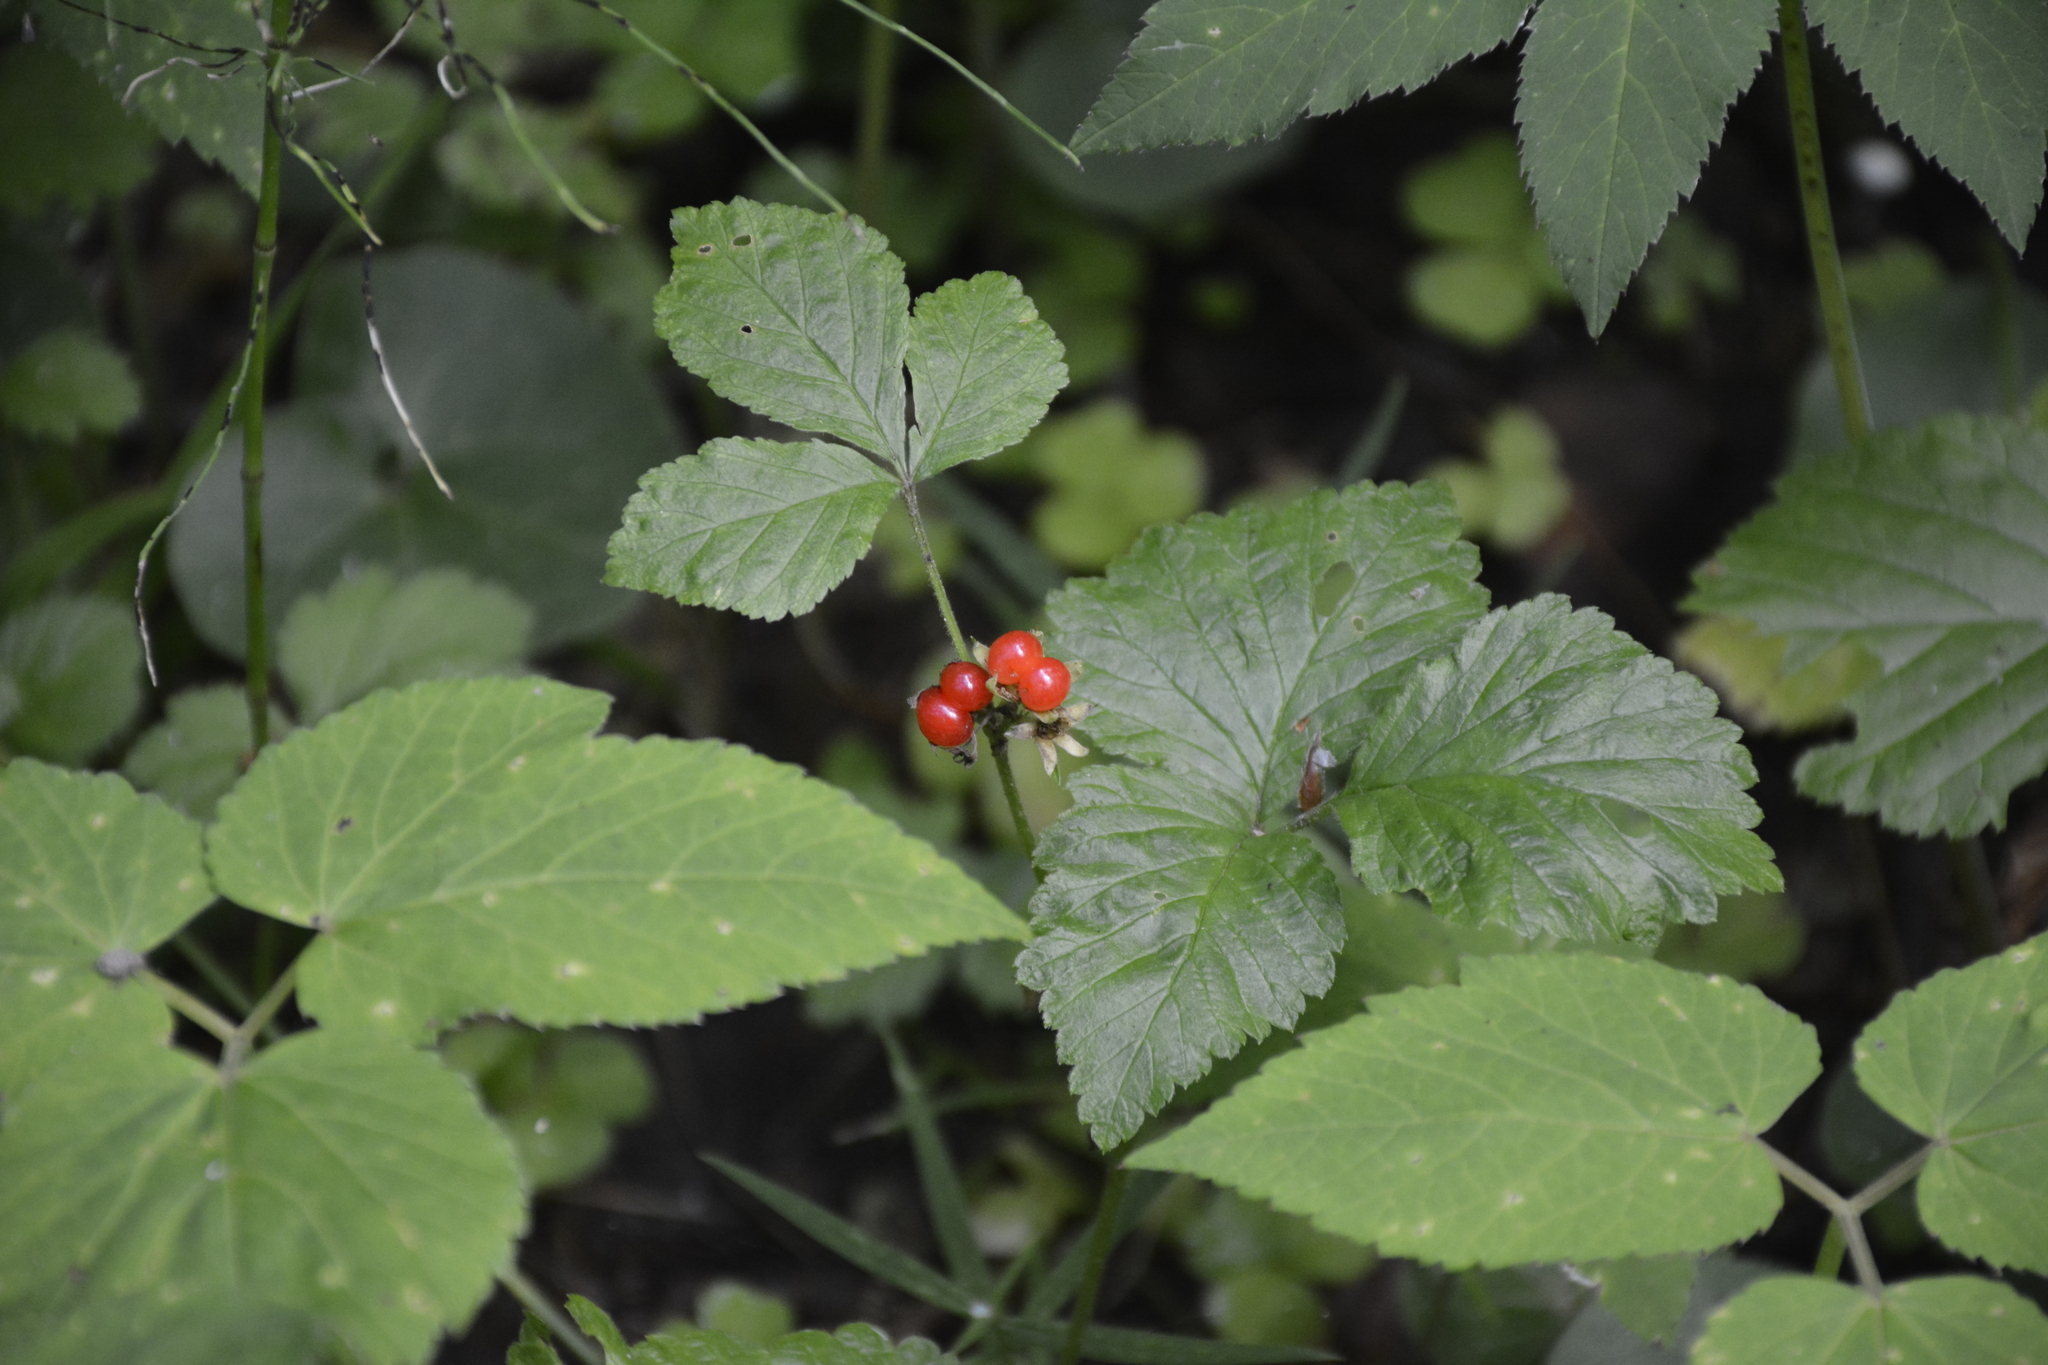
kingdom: Plantae
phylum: Tracheophyta
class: Magnoliopsida
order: Rosales
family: Rosaceae
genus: Rubus
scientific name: Rubus saxatilis
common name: Stone bramble
